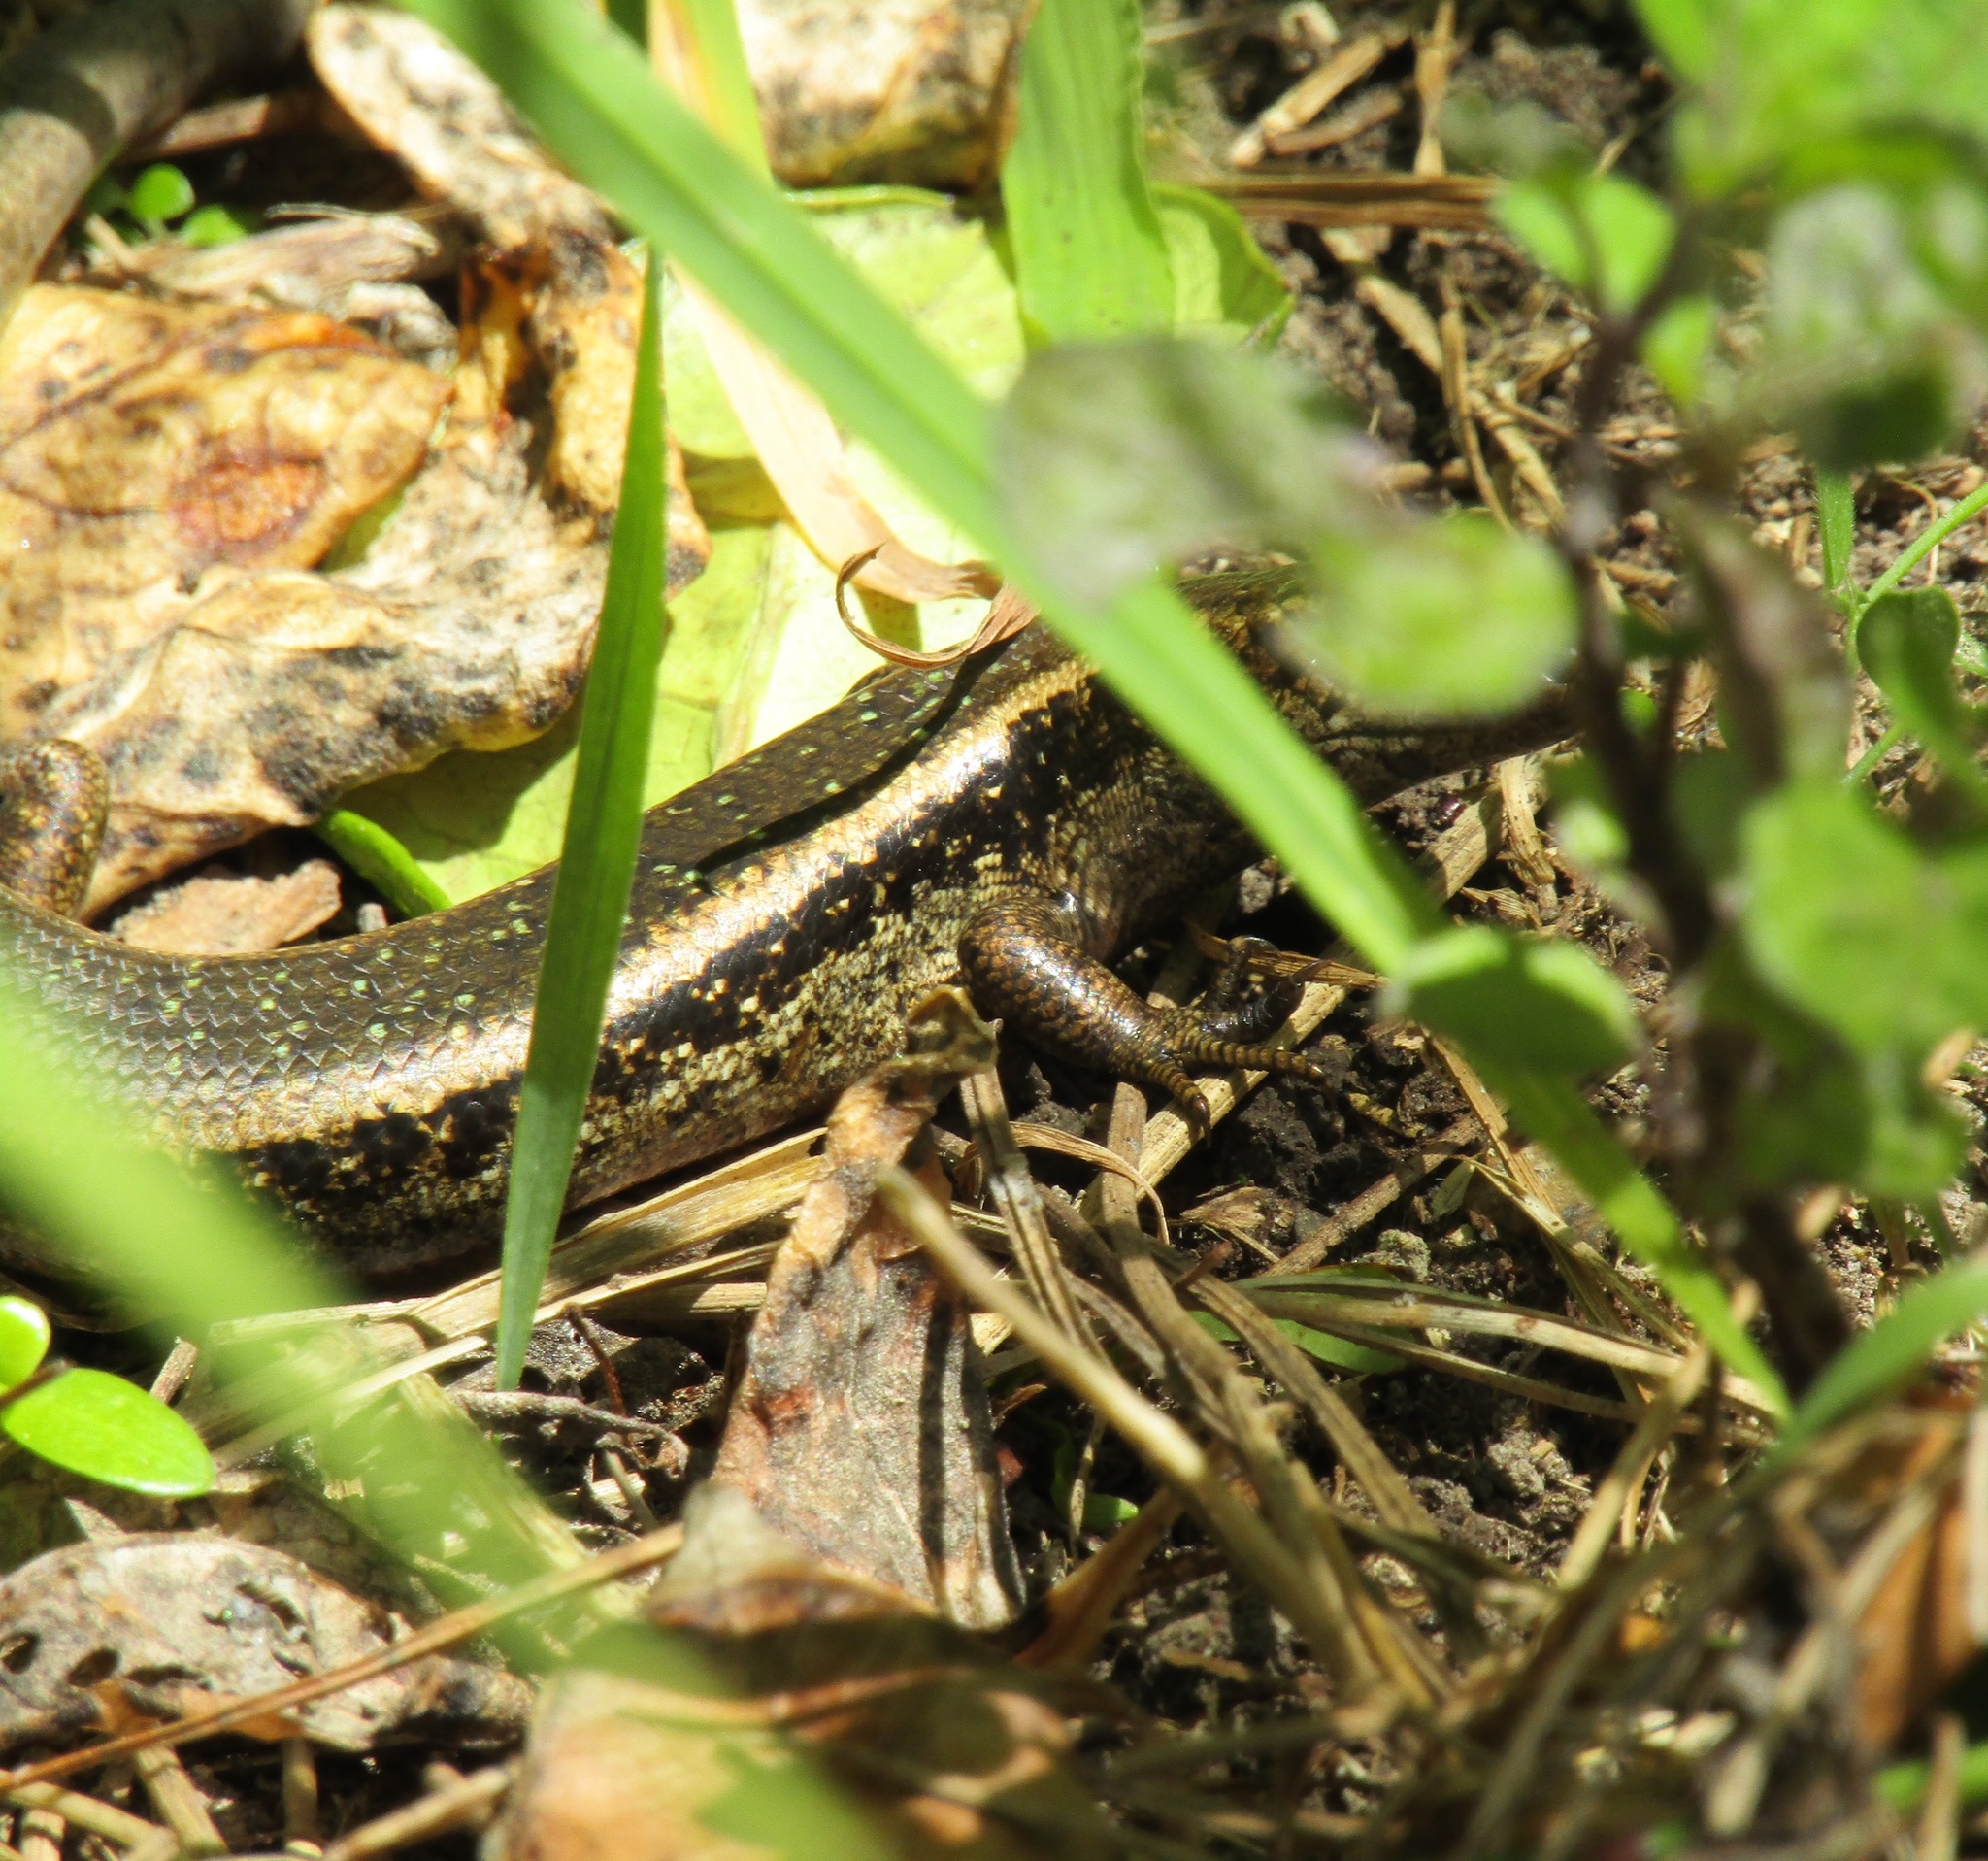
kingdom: Animalia
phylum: Chordata
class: Squamata
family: Scincidae
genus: Oligosoma
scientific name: Oligosoma kokowai
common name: Northern spotted skink
